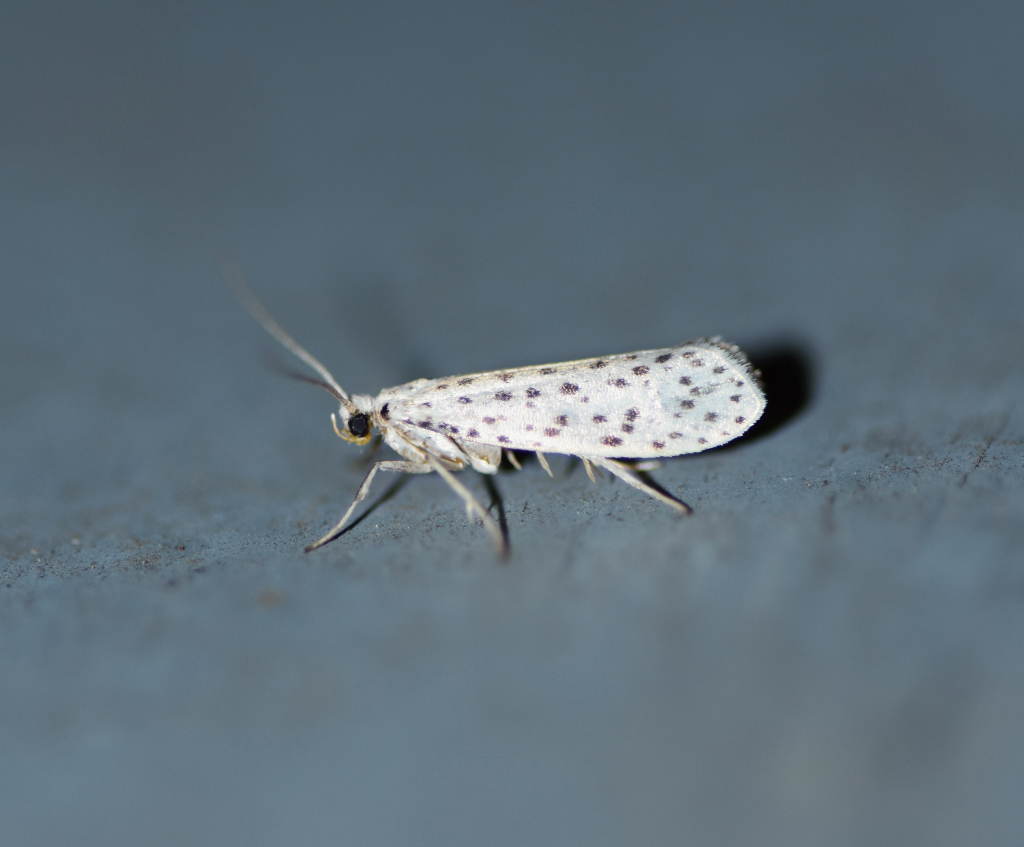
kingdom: Animalia
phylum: Arthropoda
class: Insecta
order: Lepidoptera
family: Yponomeutidae
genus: Yponomeuta
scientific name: Yponomeuta multipunctella
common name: American ermine moth
